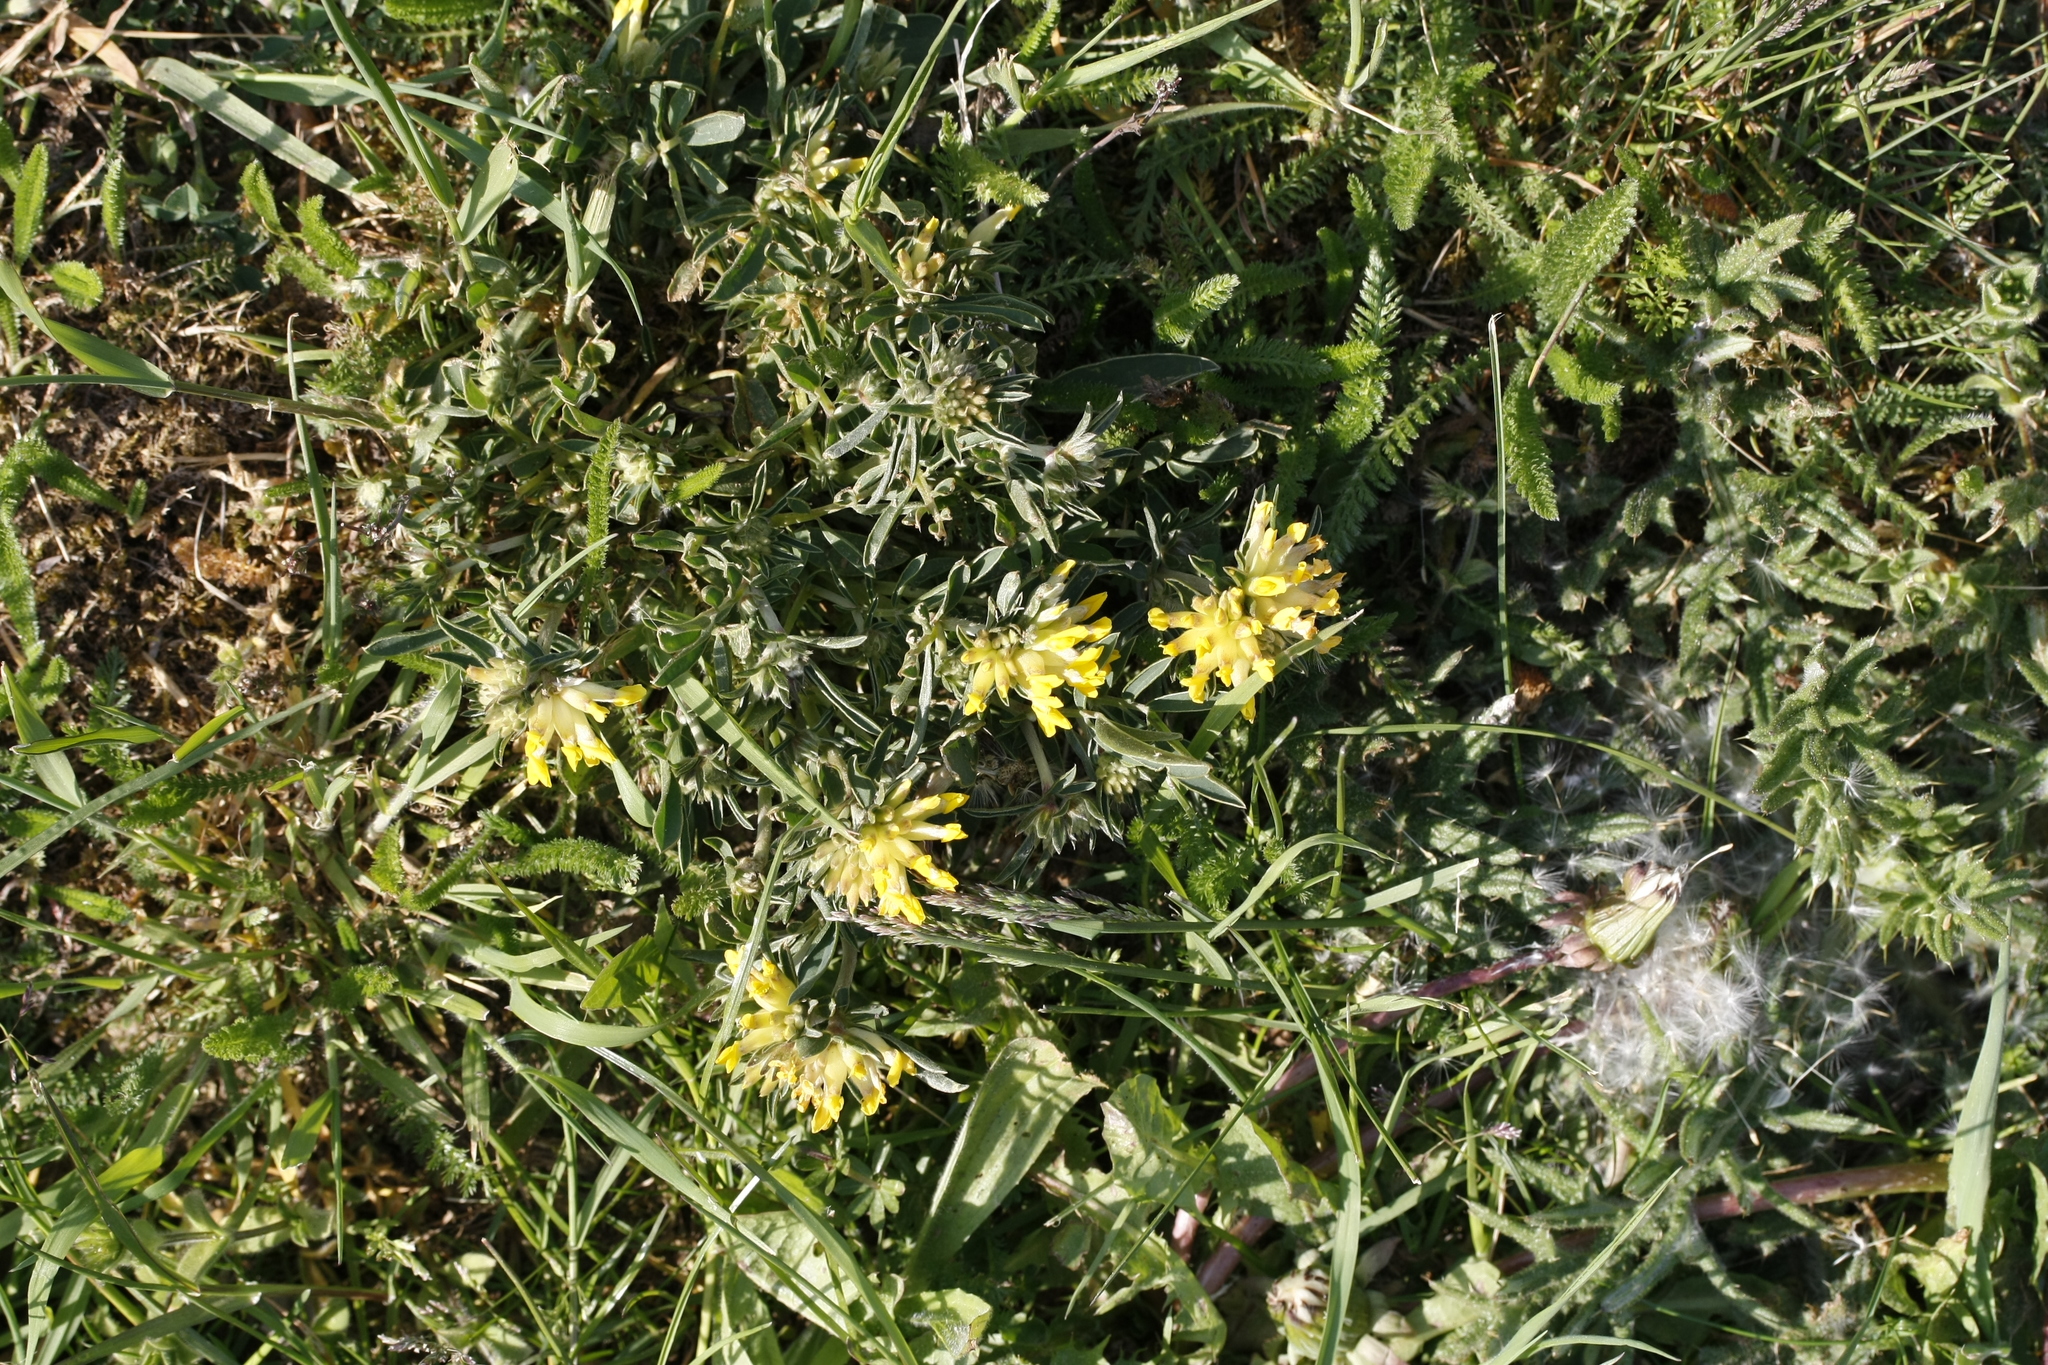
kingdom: Plantae
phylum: Tracheophyta
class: Magnoliopsida
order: Fabales
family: Fabaceae
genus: Anthyllis
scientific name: Anthyllis vulneraria
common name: Kidney vetch
